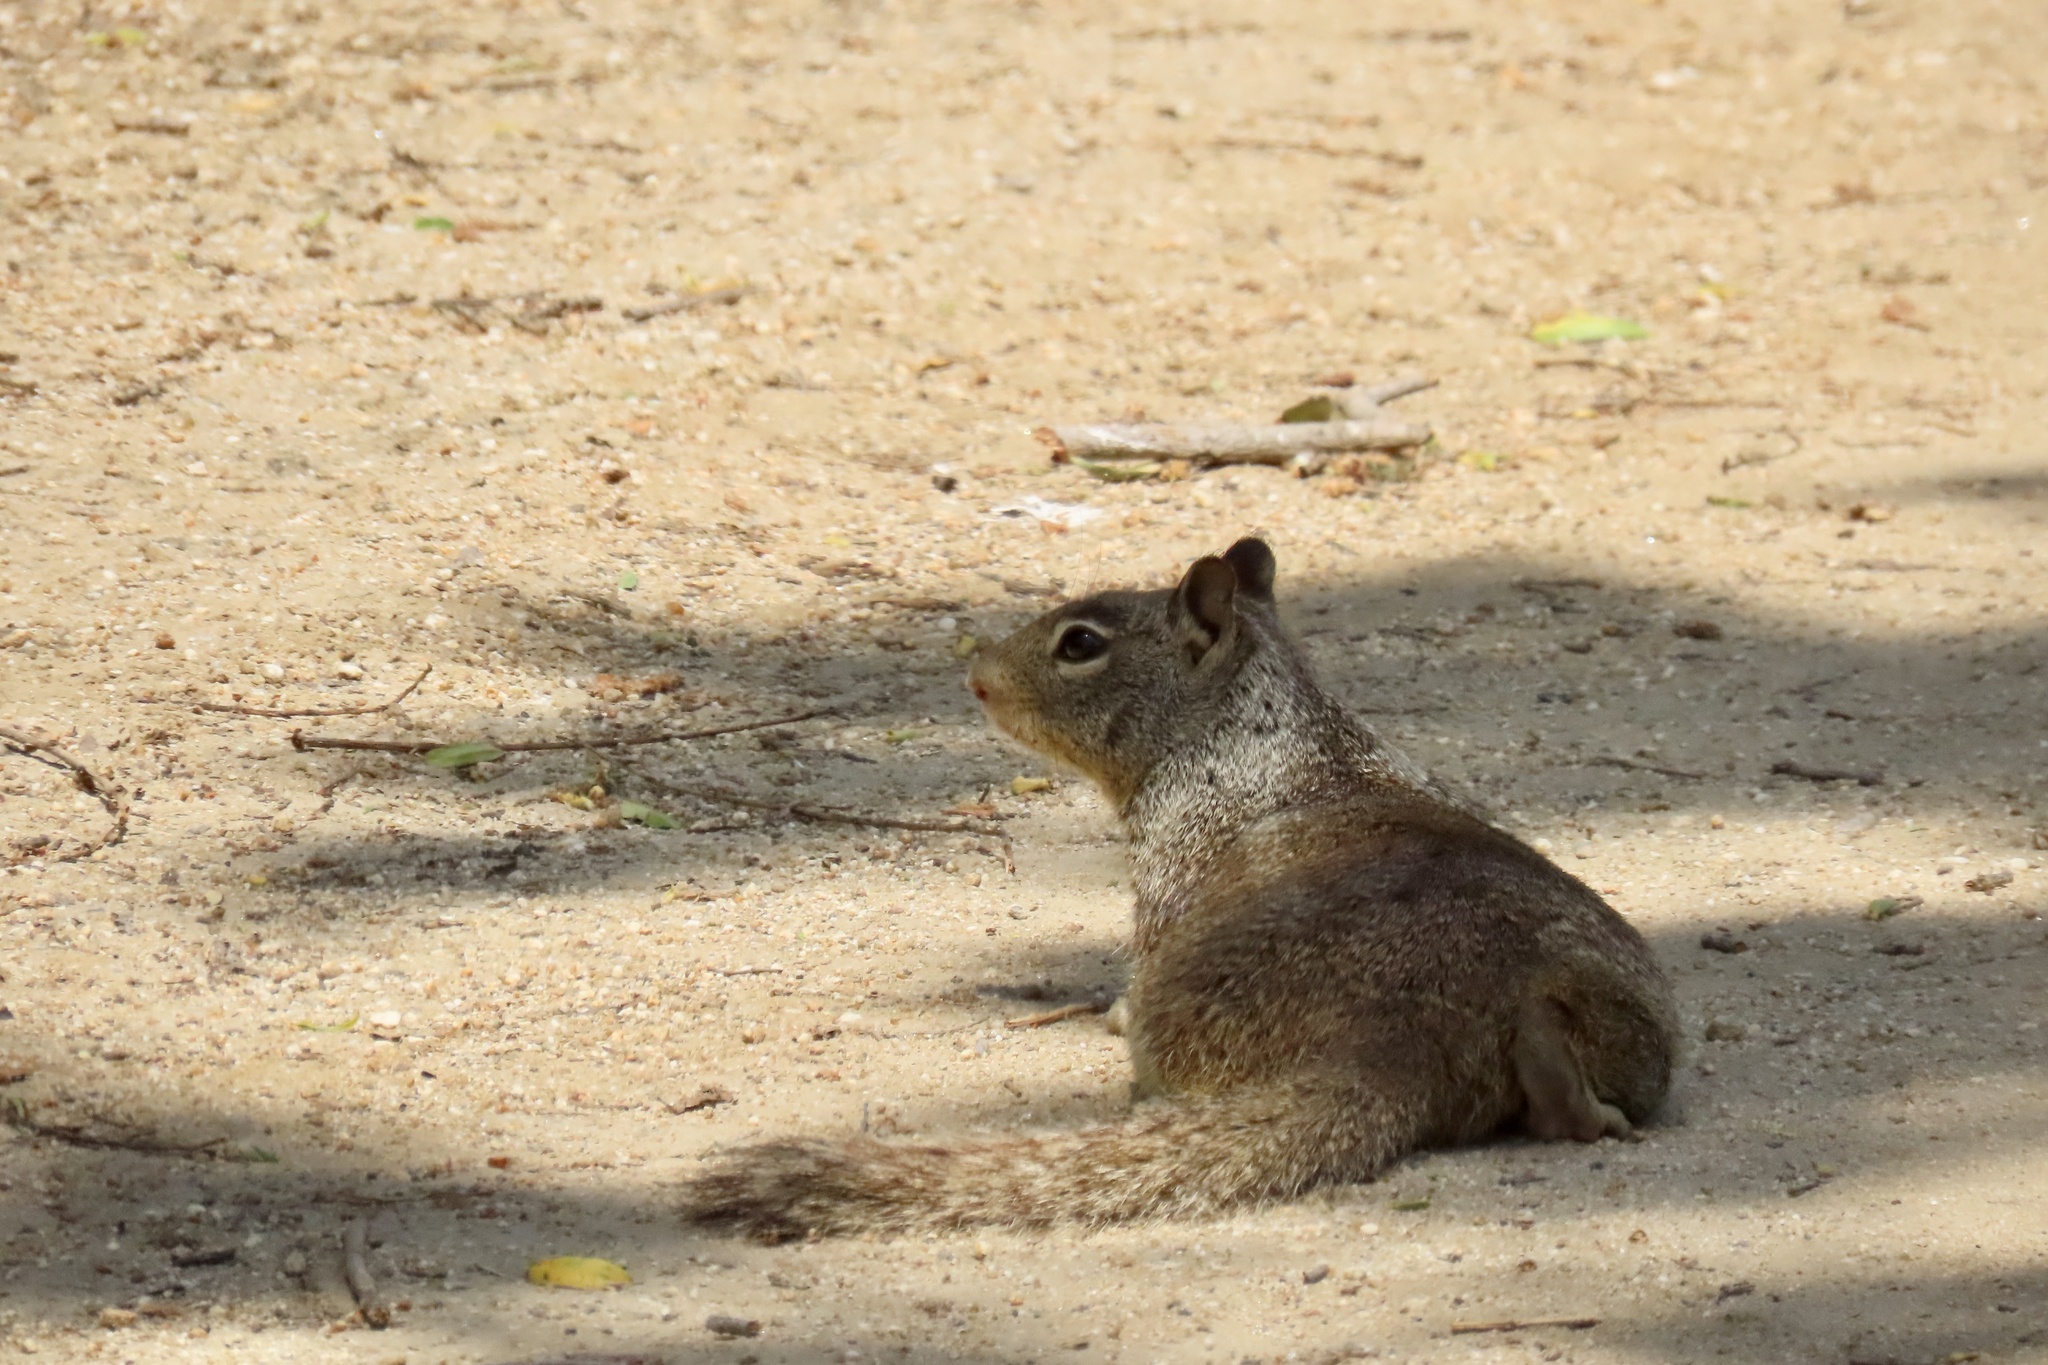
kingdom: Animalia
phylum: Chordata
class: Mammalia
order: Rodentia
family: Sciuridae
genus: Otospermophilus
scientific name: Otospermophilus beecheyi
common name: California ground squirrel
